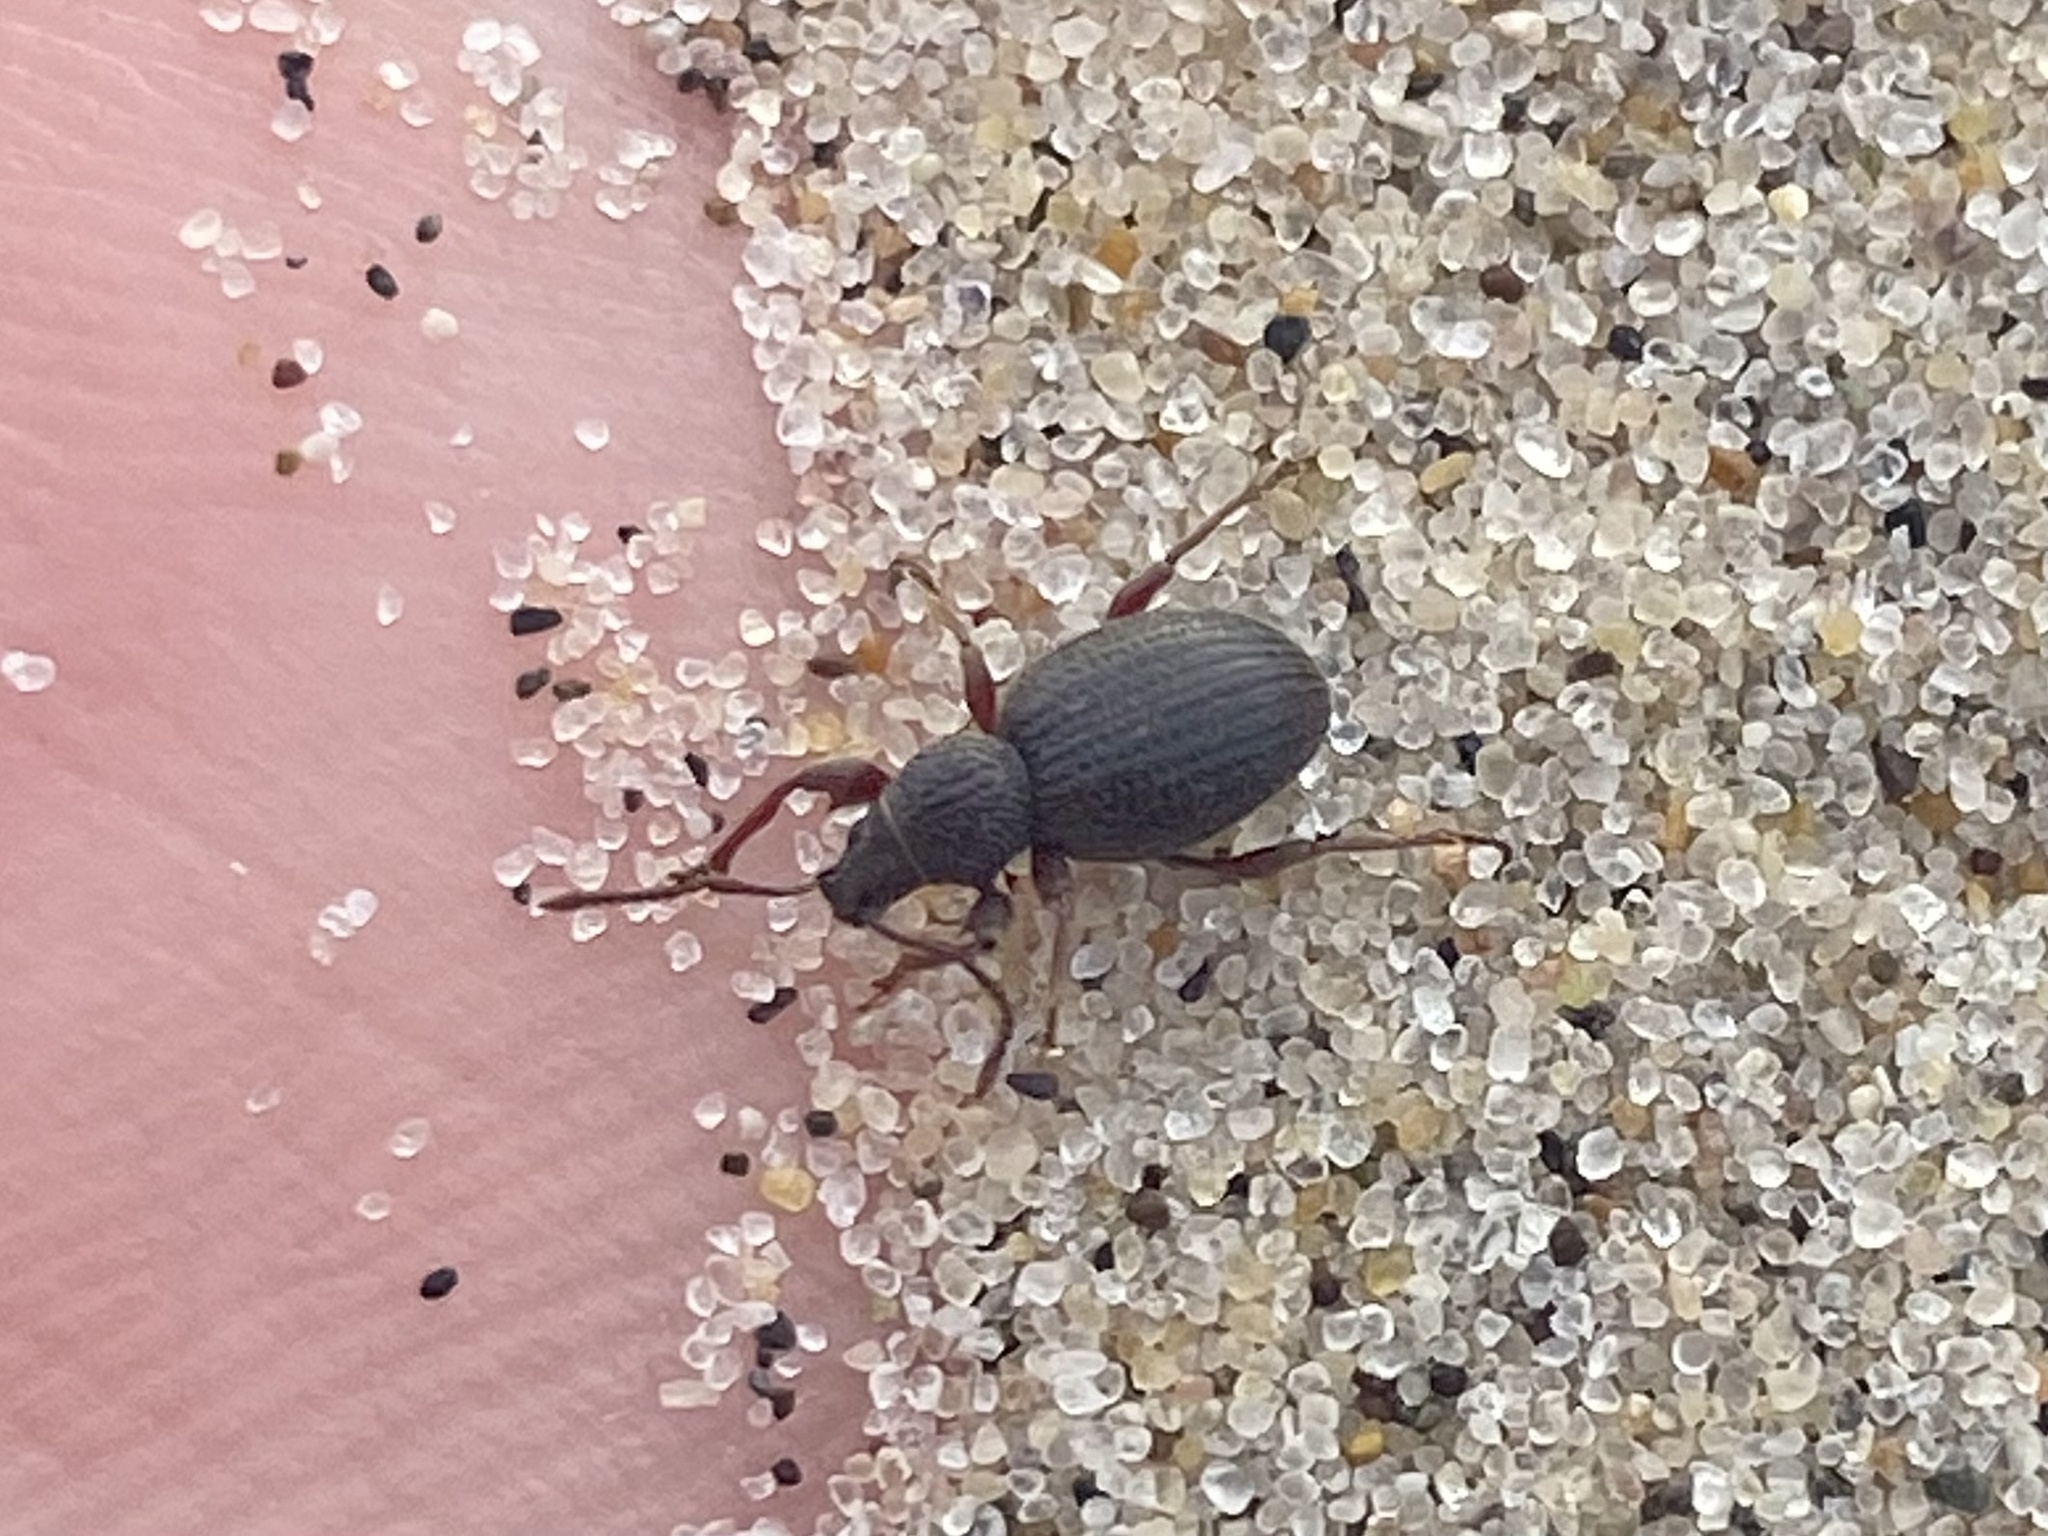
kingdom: Animalia
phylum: Arthropoda
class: Insecta
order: Coleoptera
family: Curculionidae
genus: Otiorhynchus
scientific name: Otiorhynchus ovatus
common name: Strawberry root weevil
